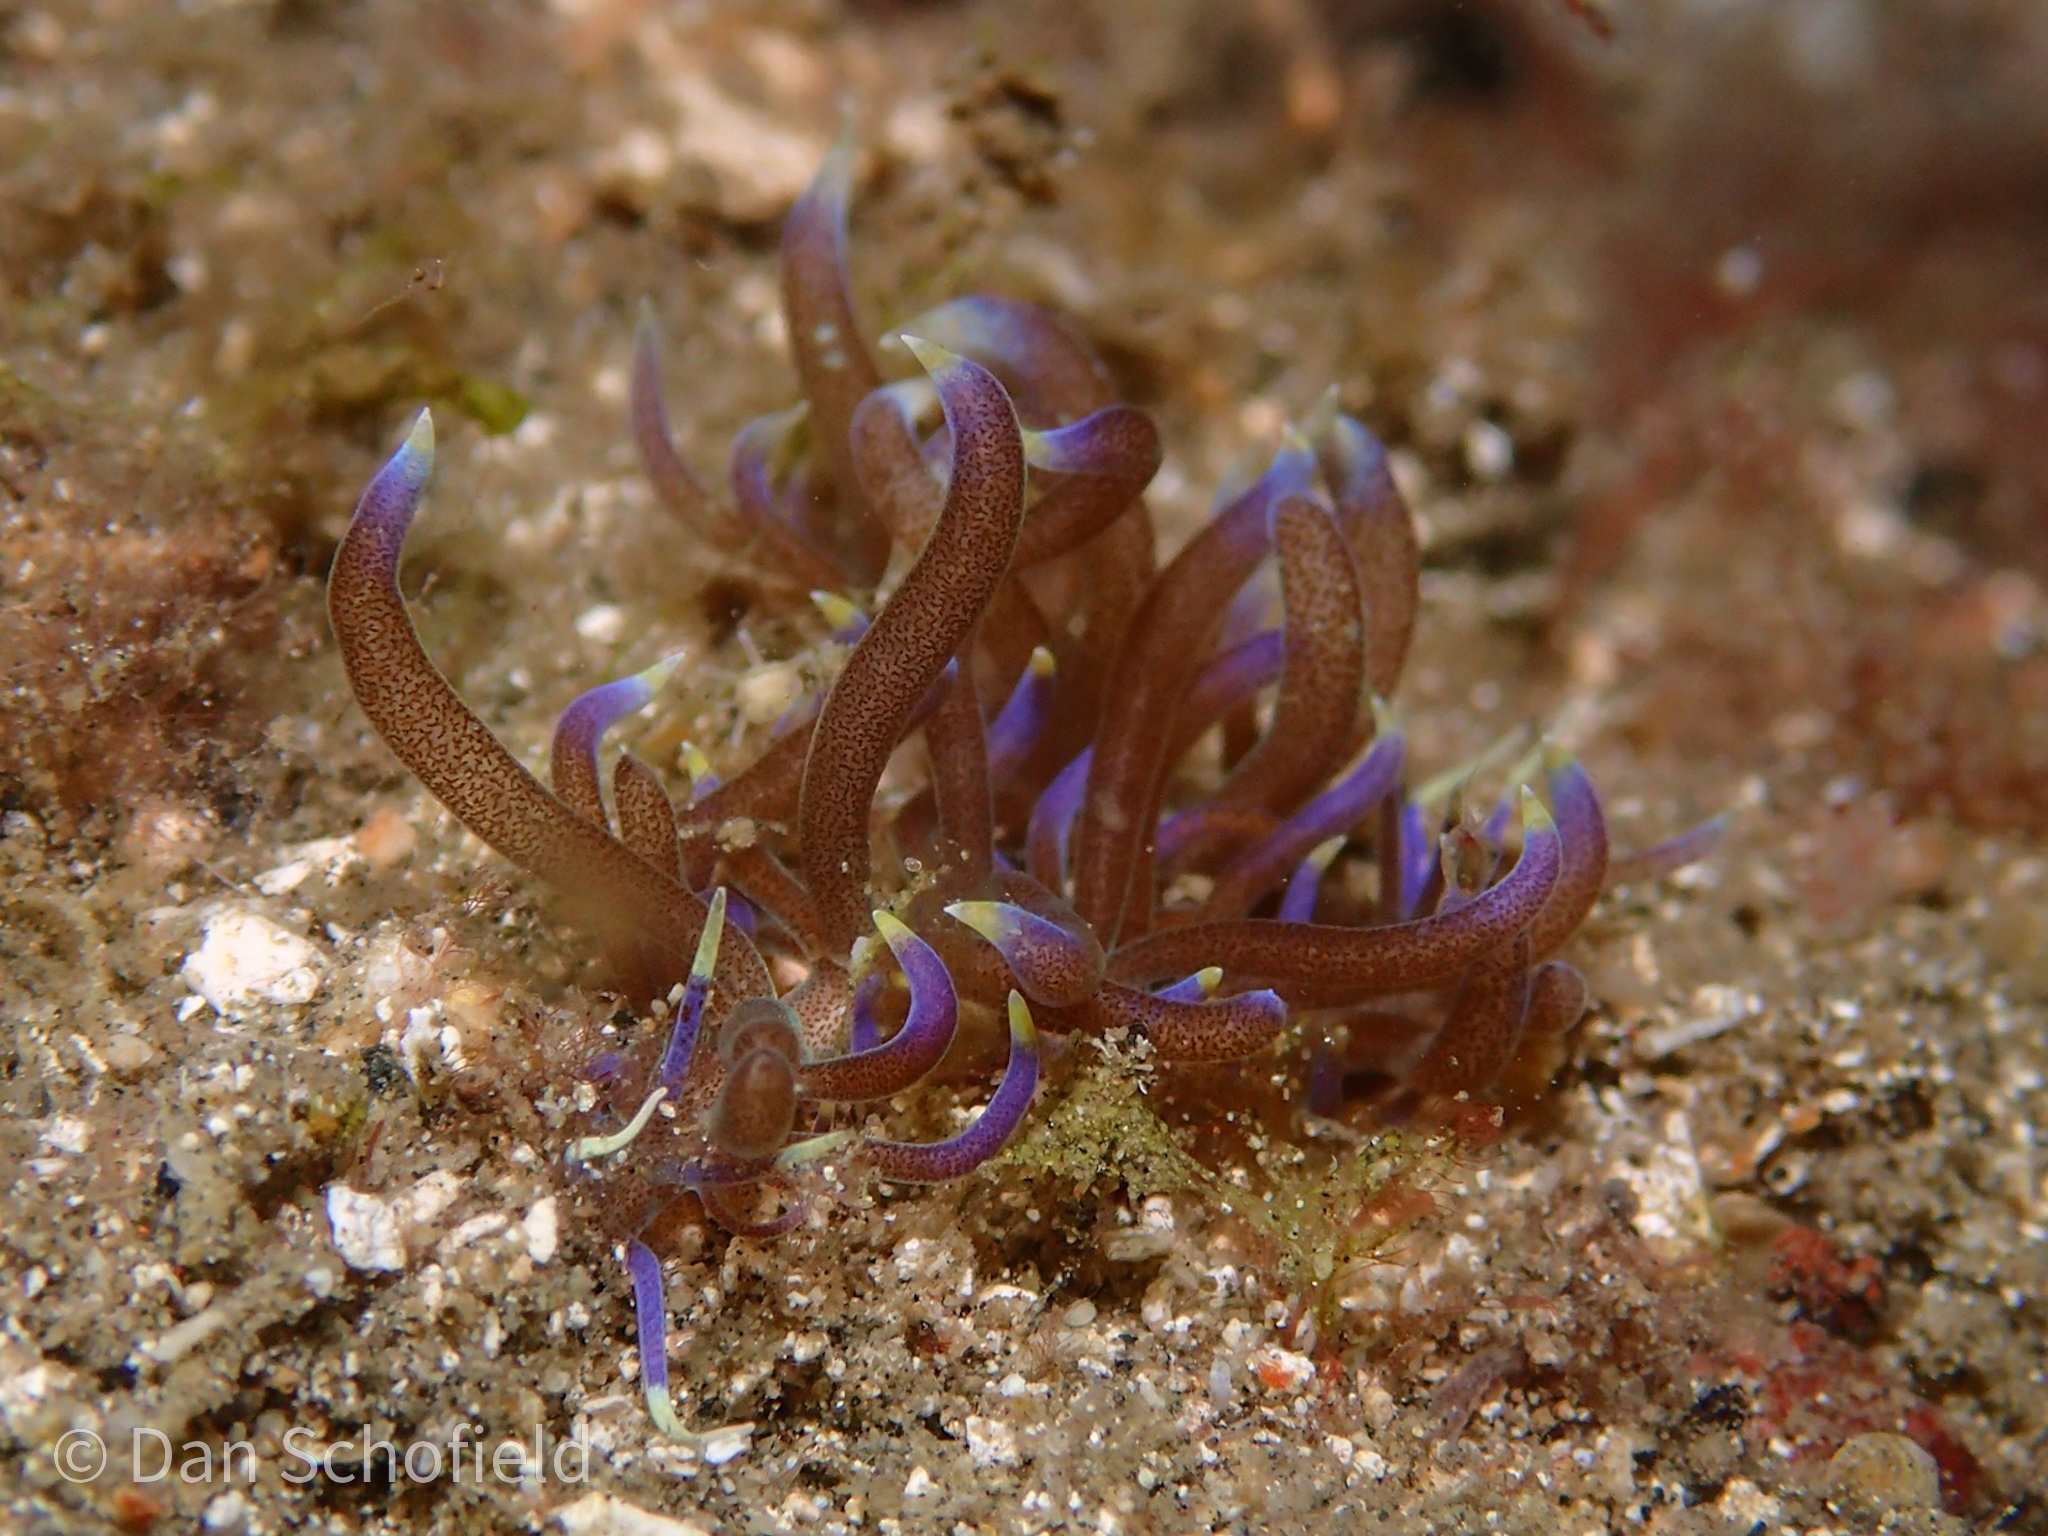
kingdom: Animalia
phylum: Mollusca
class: Gastropoda
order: Nudibranchia
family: Myrrhinidae
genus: Phyllodesmium
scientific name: Phyllodesmium macphersonae
